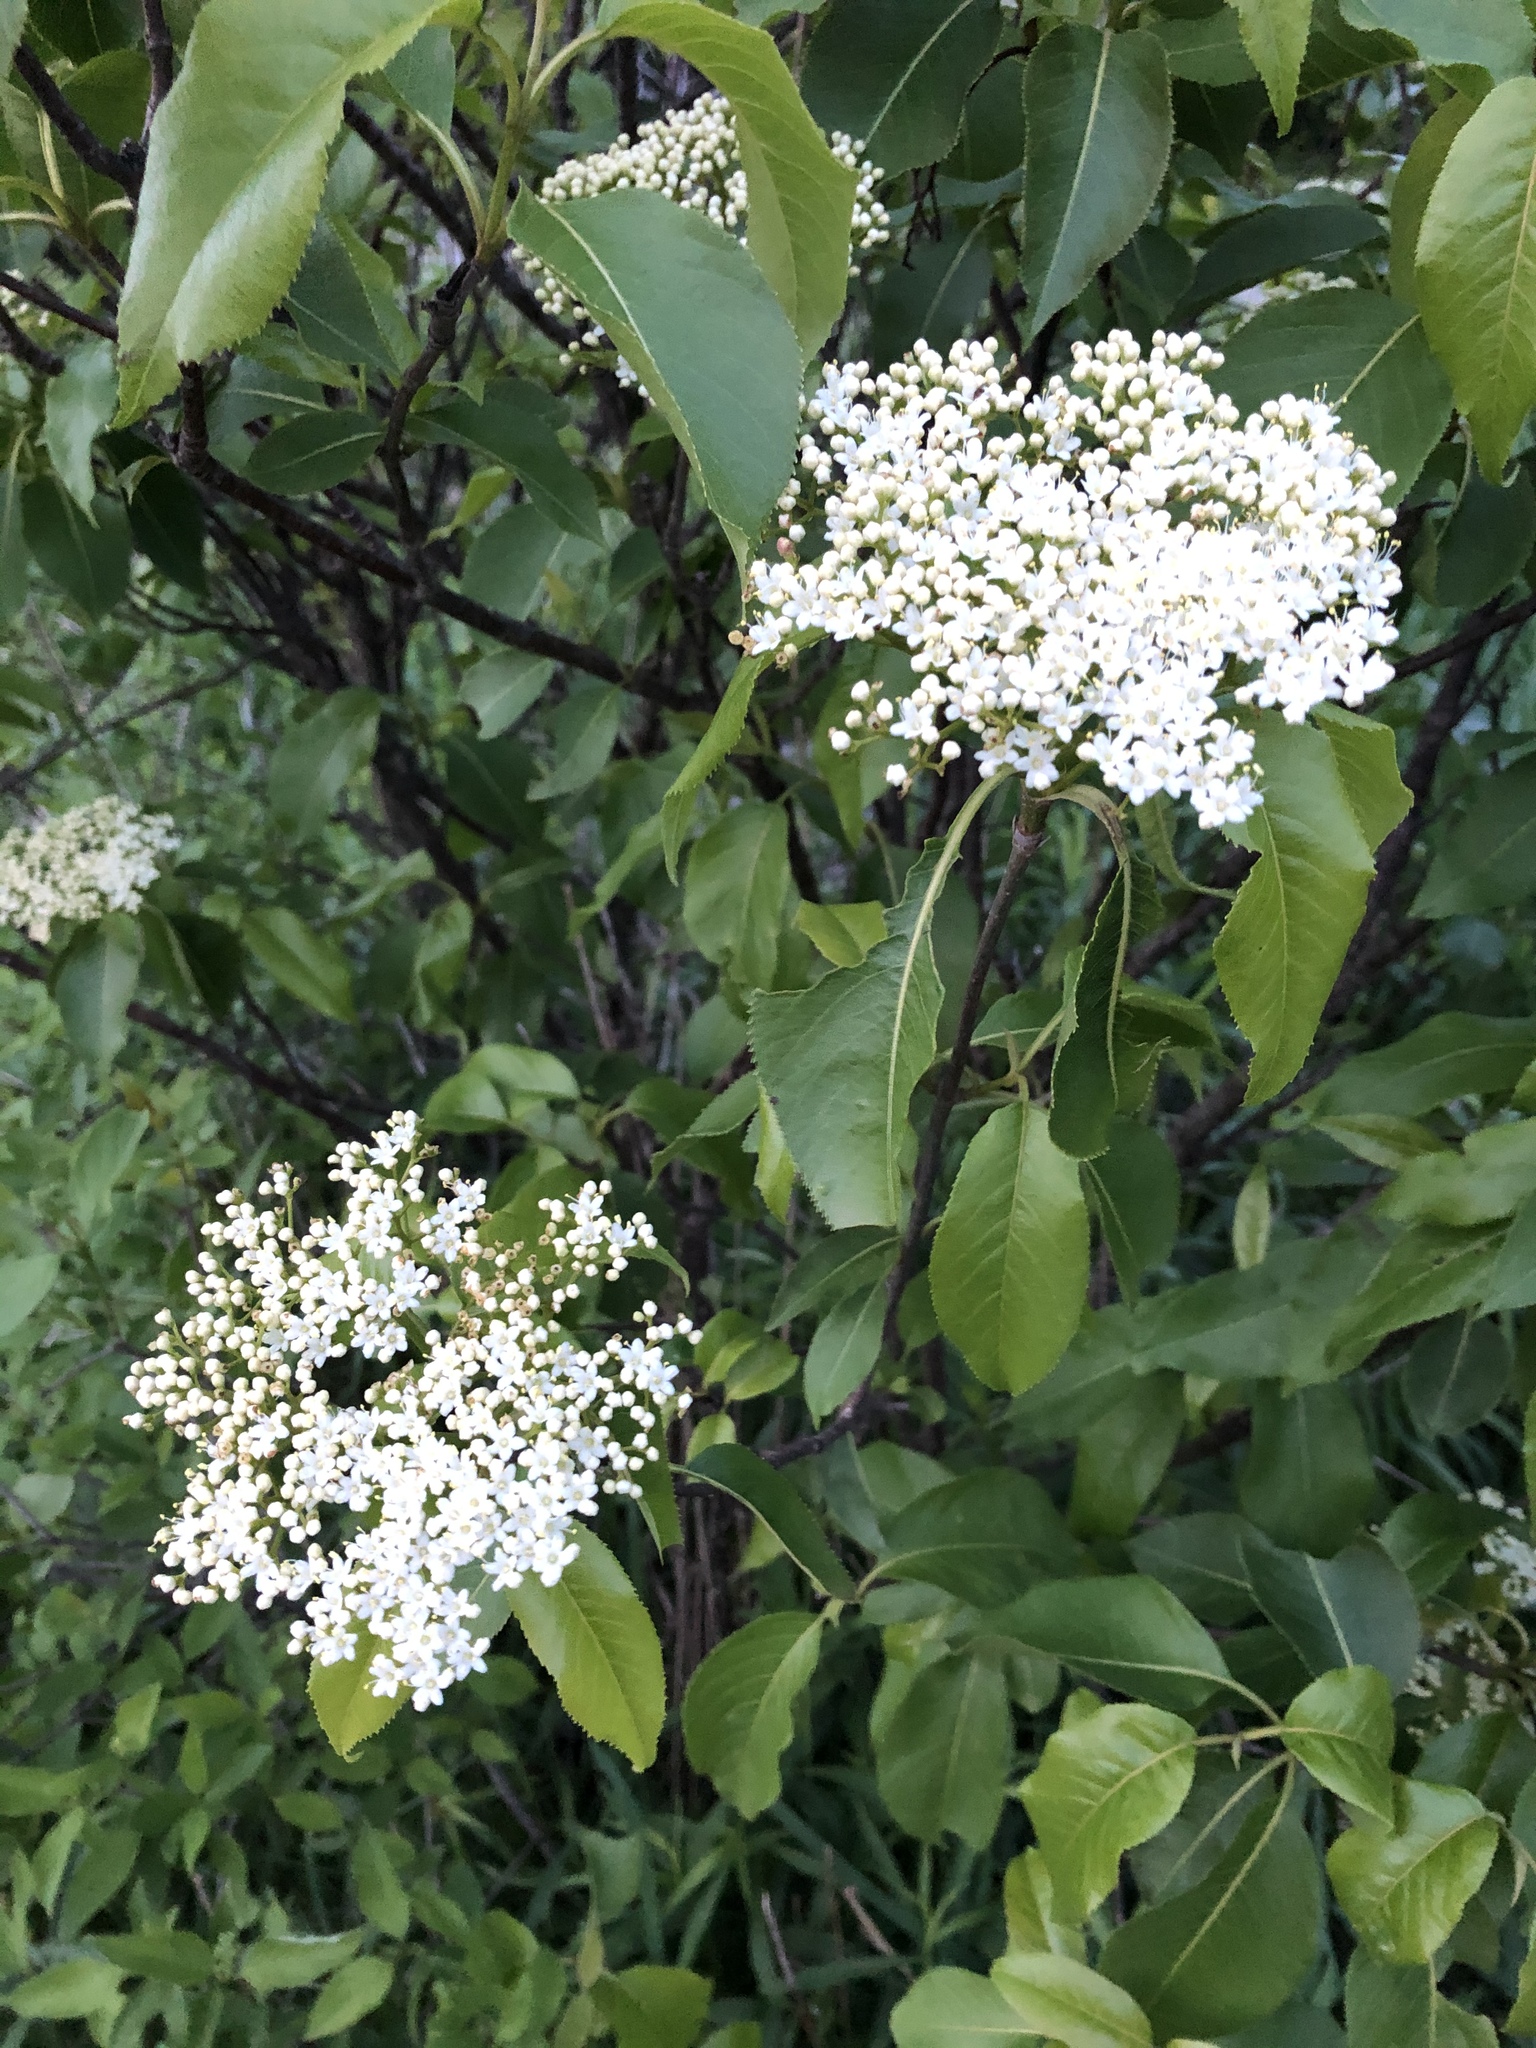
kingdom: Plantae
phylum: Tracheophyta
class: Magnoliopsida
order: Dipsacales
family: Viburnaceae
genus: Viburnum
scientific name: Viburnum lentago
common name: Black haw
